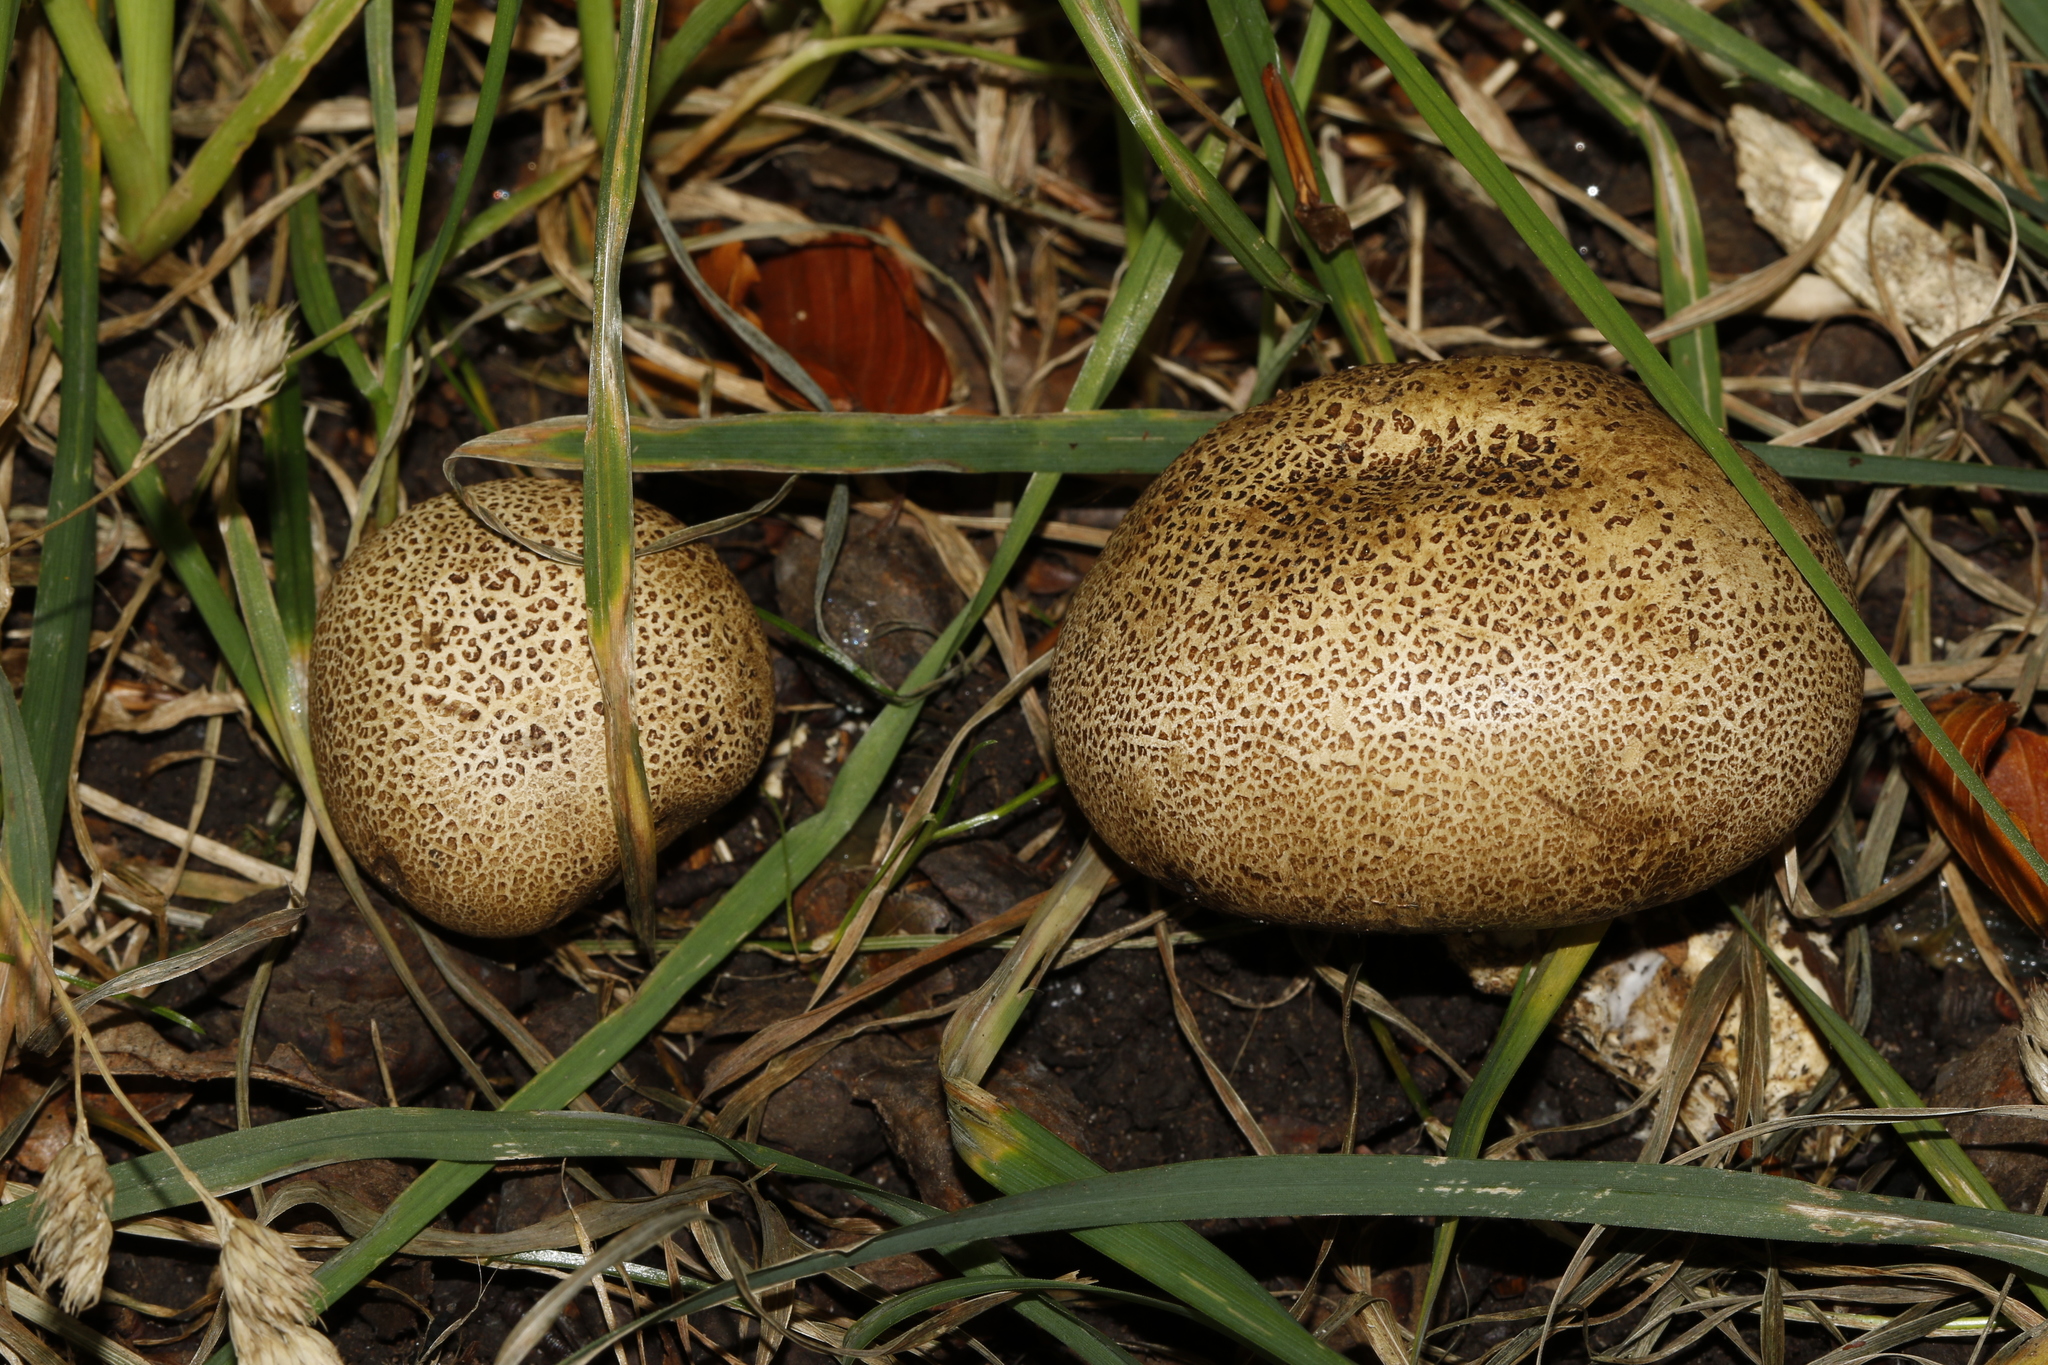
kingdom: Fungi
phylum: Basidiomycota
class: Agaricomycetes
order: Boletales
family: Sclerodermataceae
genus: Scleroderma
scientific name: Scleroderma citrinum
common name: Common earthball
